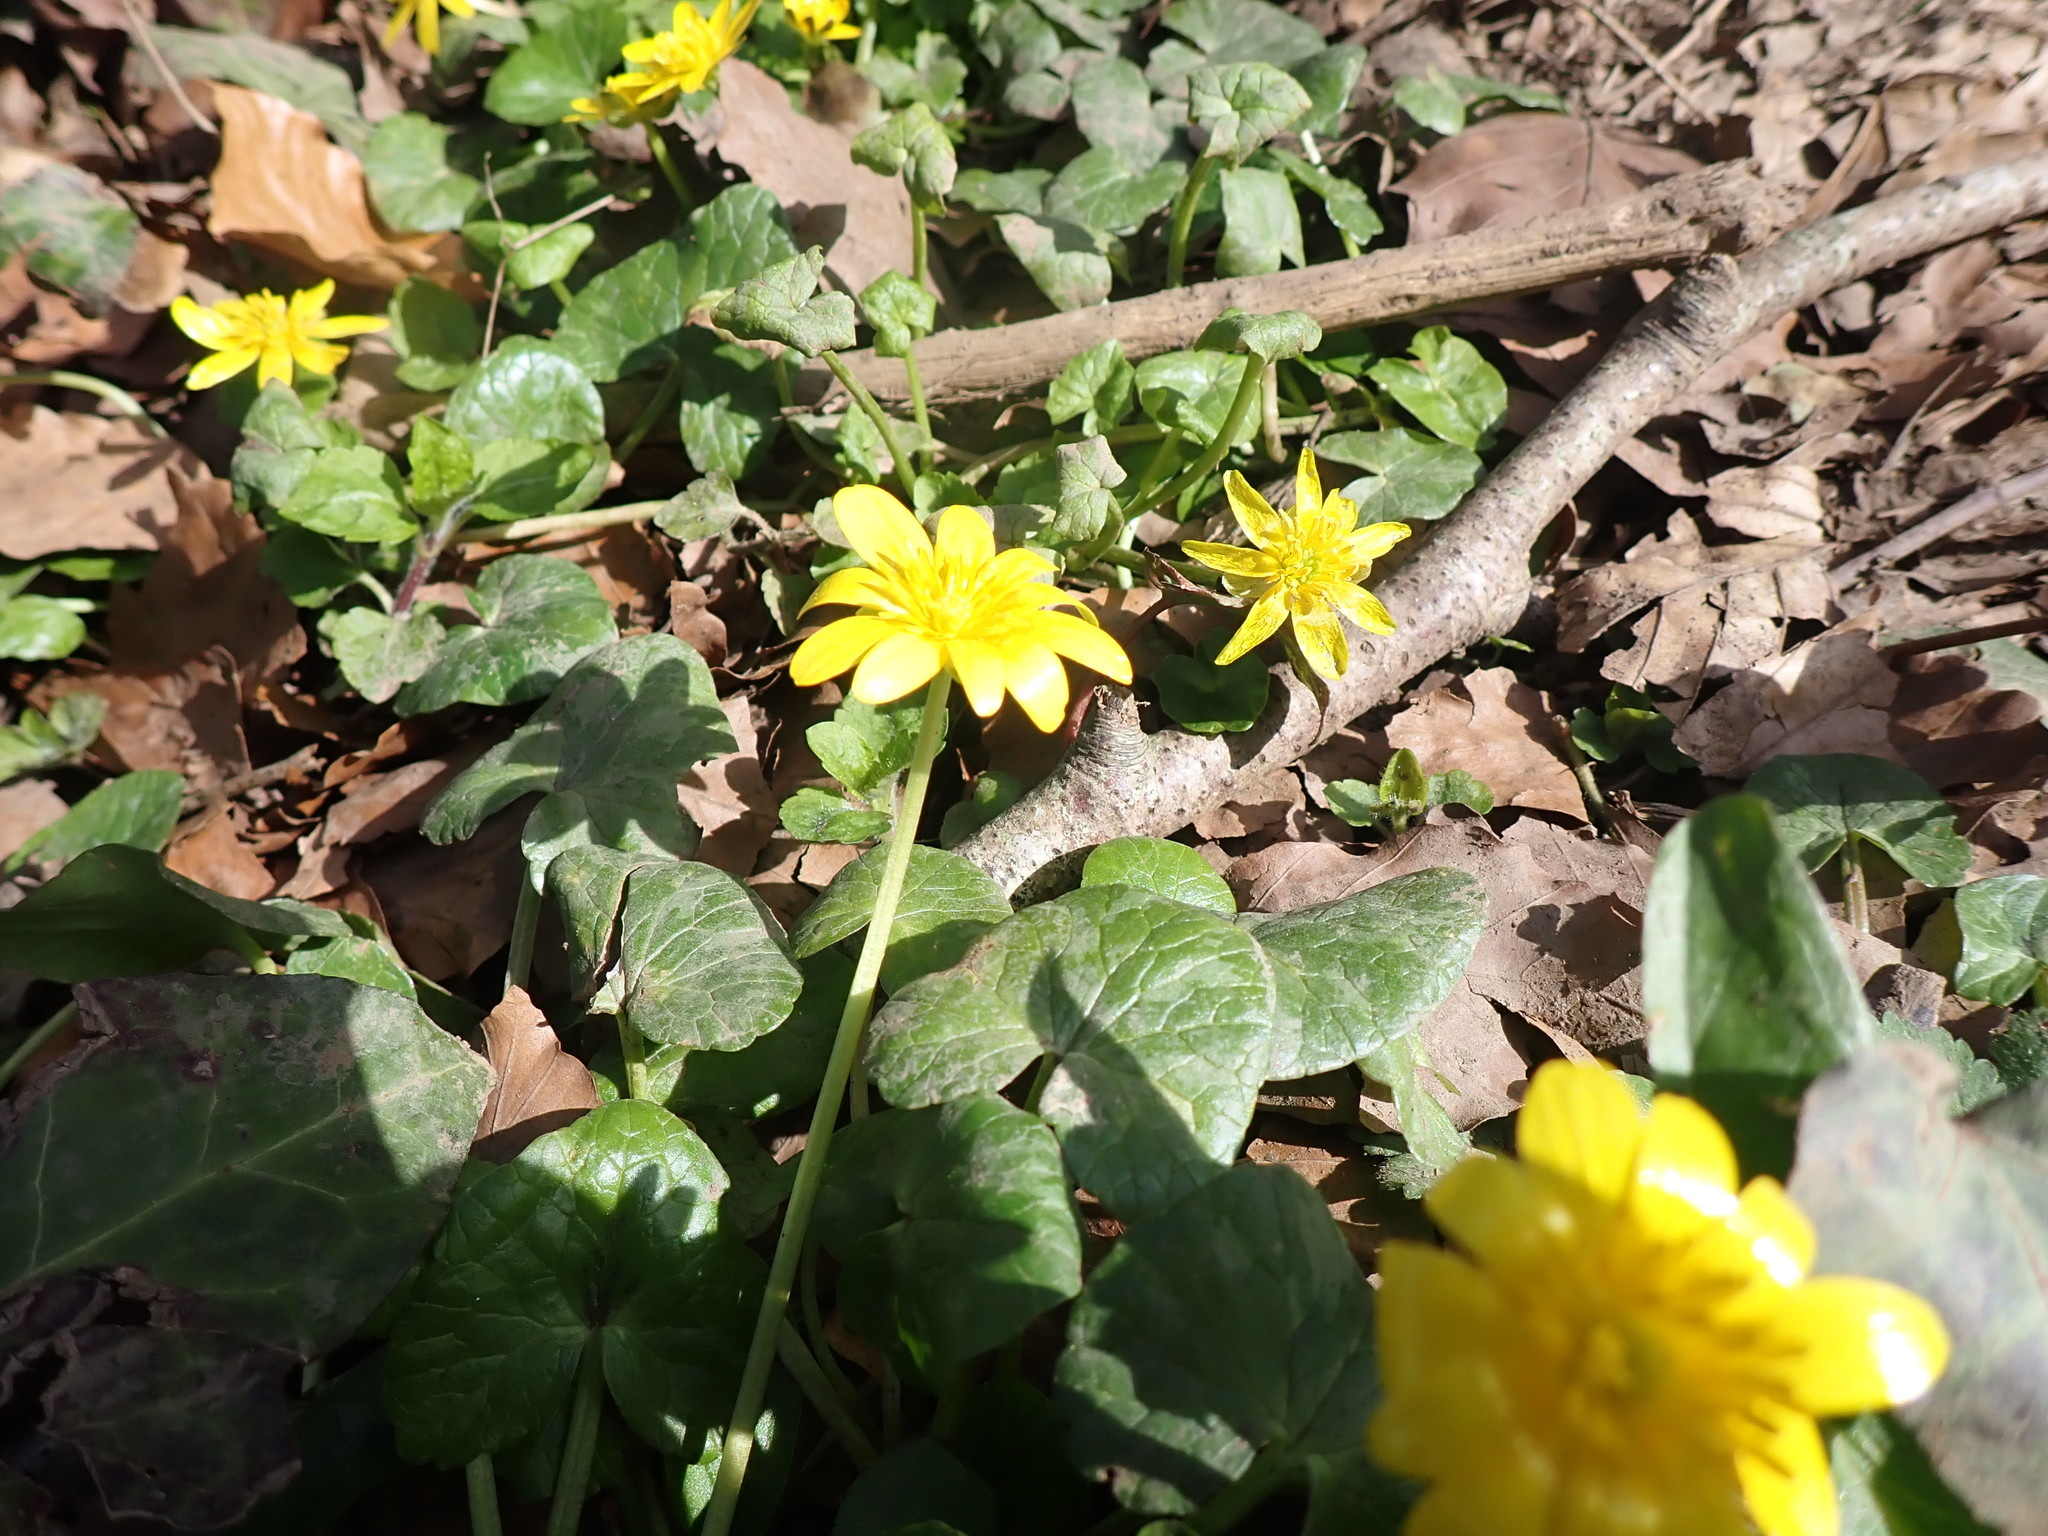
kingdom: Plantae
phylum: Tracheophyta
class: Magnoliopsida
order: Ranunculales
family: Ranunculaceae
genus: Ficaria
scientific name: Ficaria verna
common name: Lesser celandine
